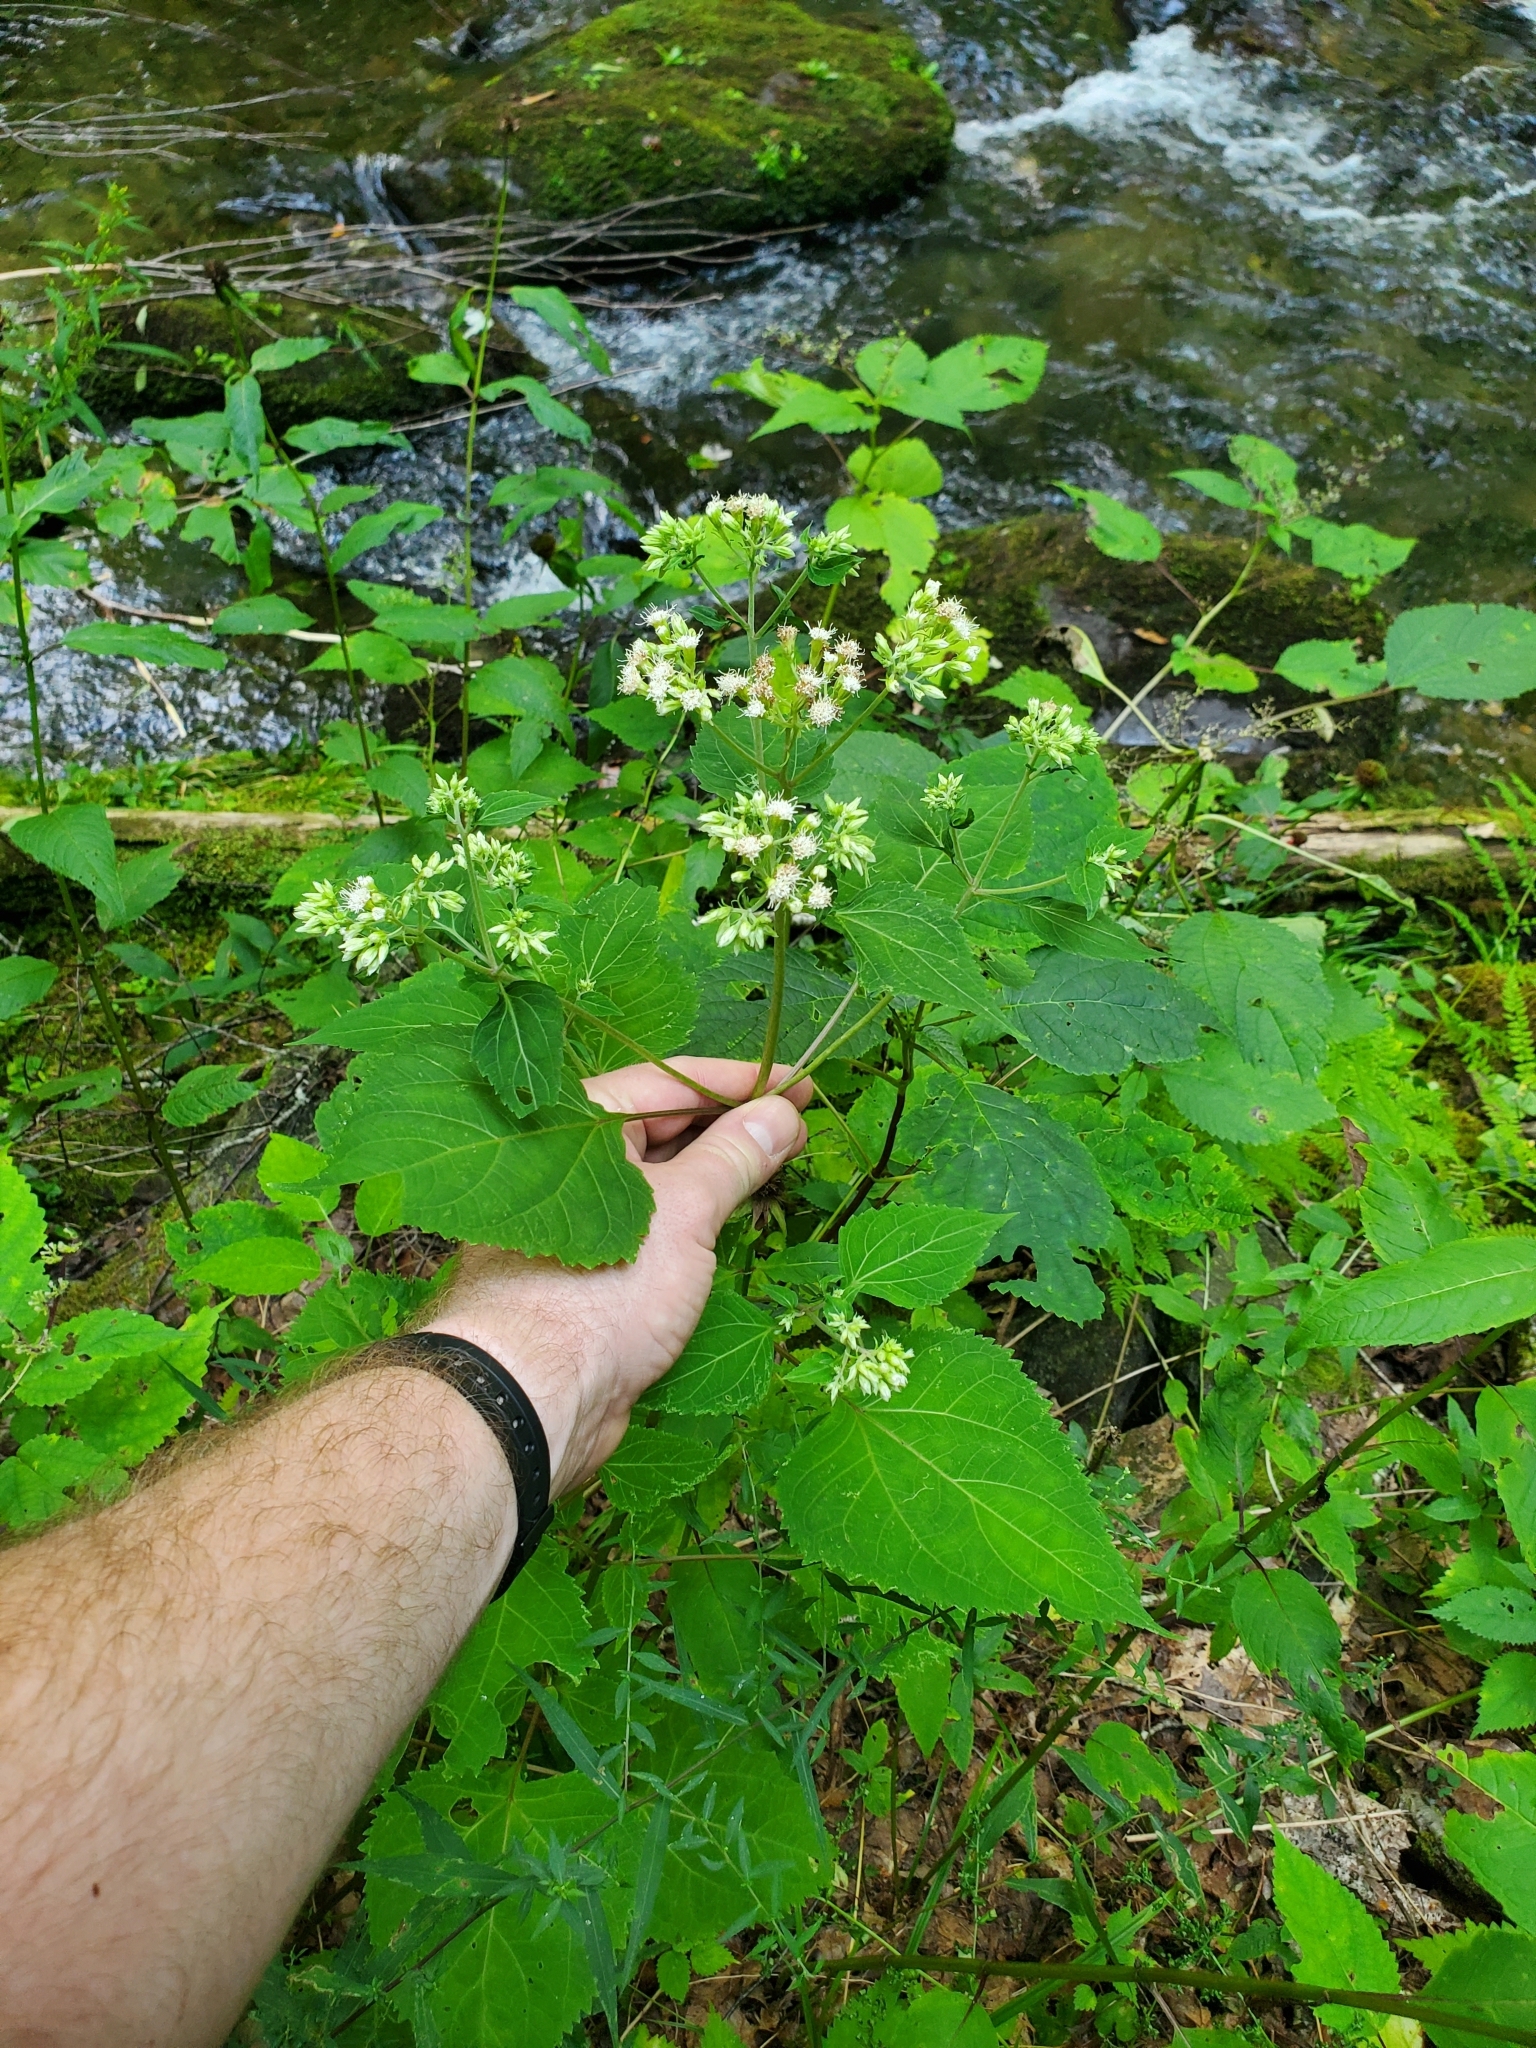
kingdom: Plantae
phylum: Tracheophyta
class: Magnoliopsida
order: Asterales
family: Asteraceae
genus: Ageratina
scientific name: Ageratina altissima
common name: White snakeroot
